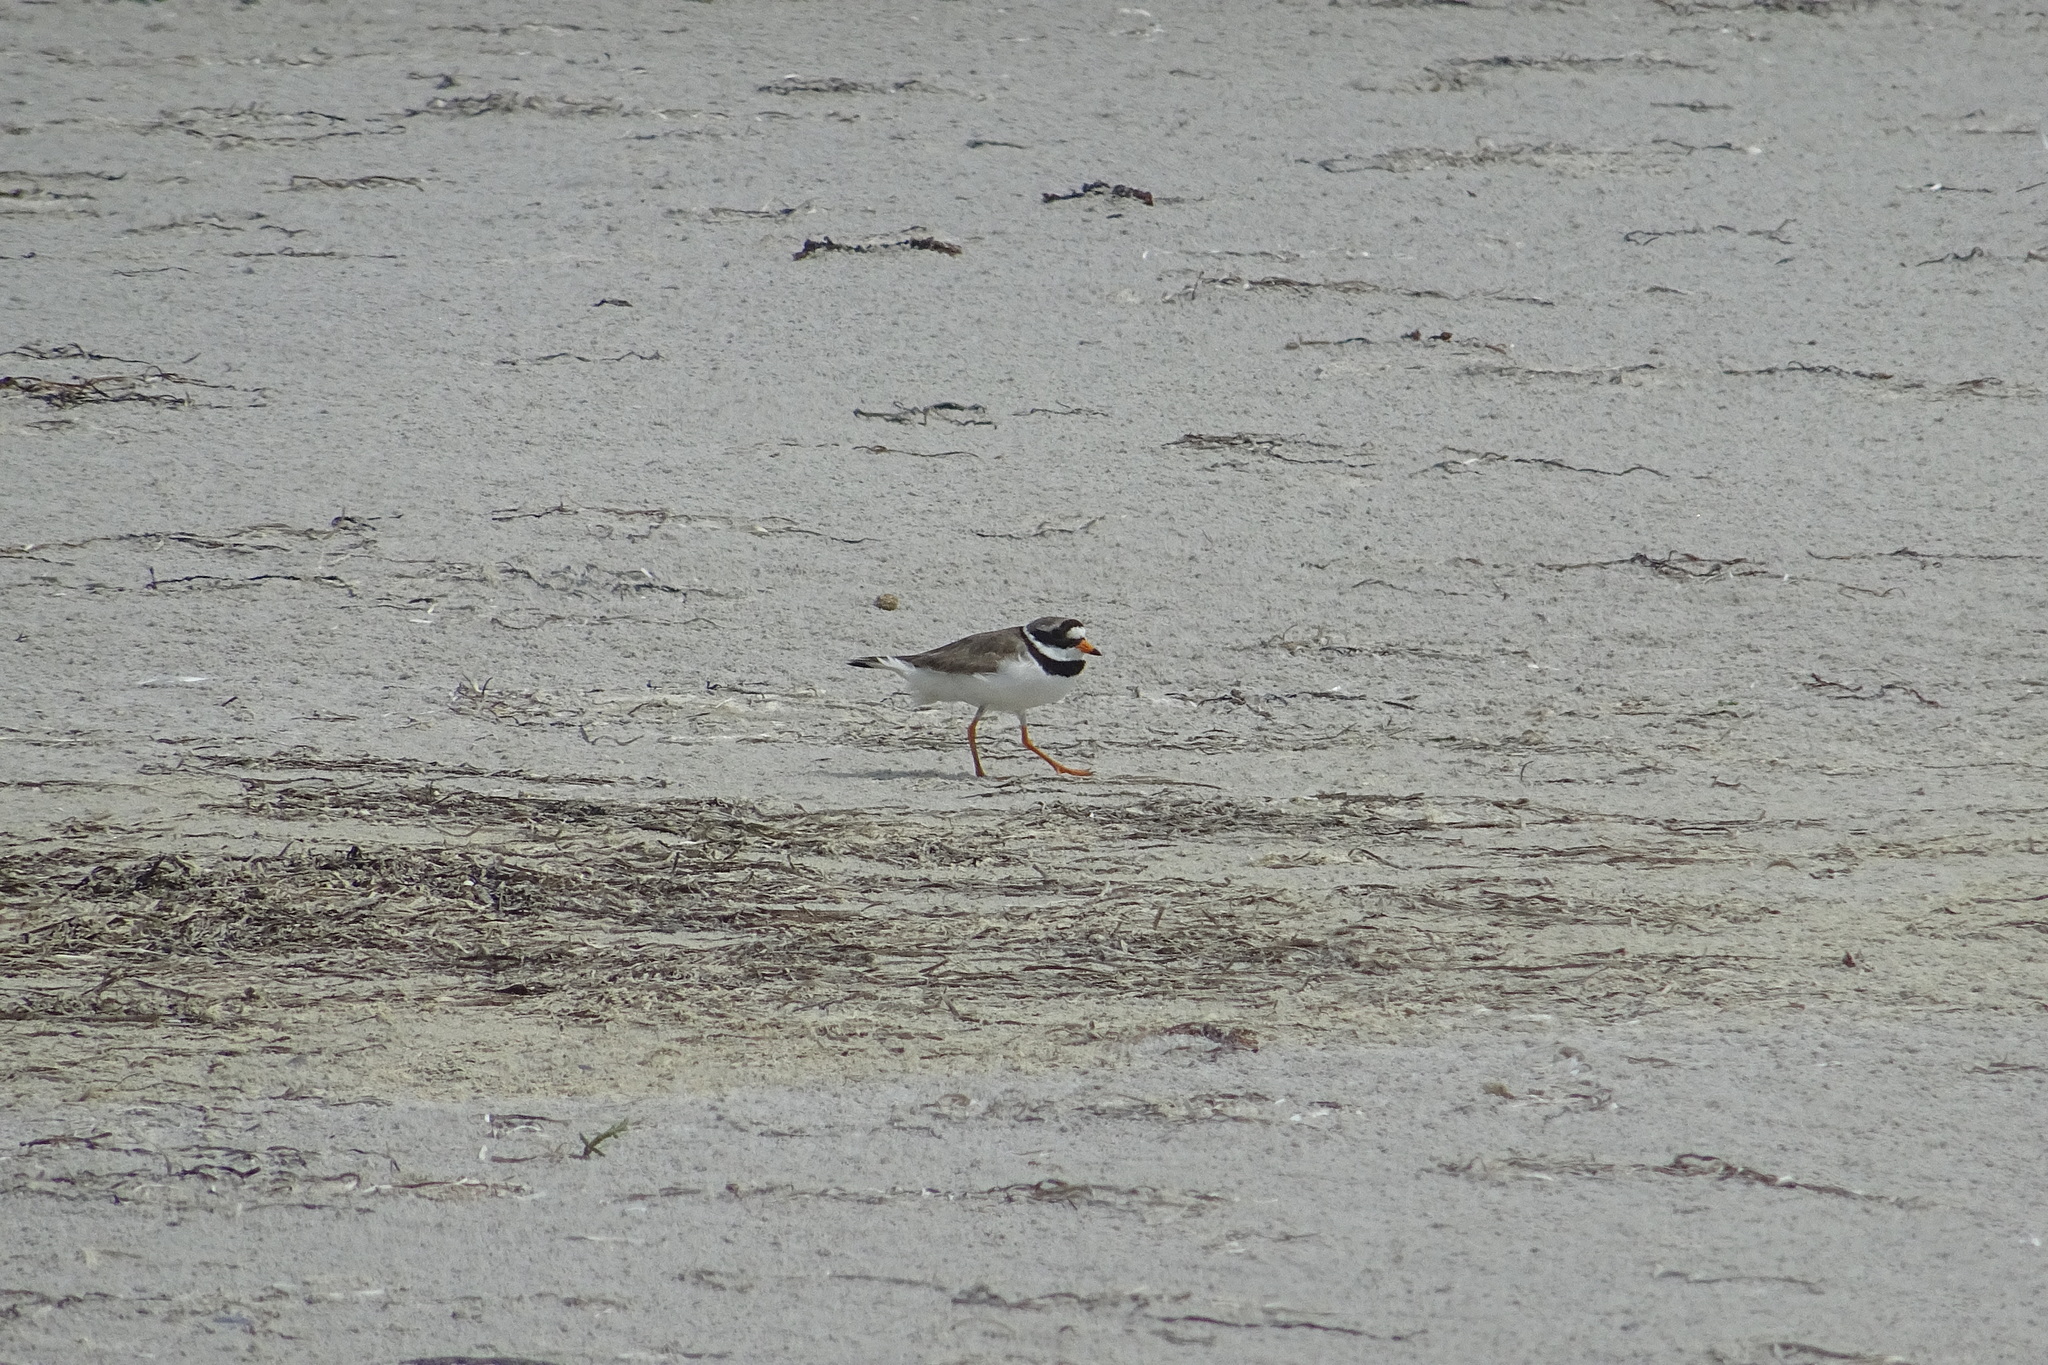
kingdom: Animalia
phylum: Chordata
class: Aves
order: Charadriiformes
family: Charadriidae
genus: Charadrius
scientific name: Charadrius hiaticula
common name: Common ringed plover
